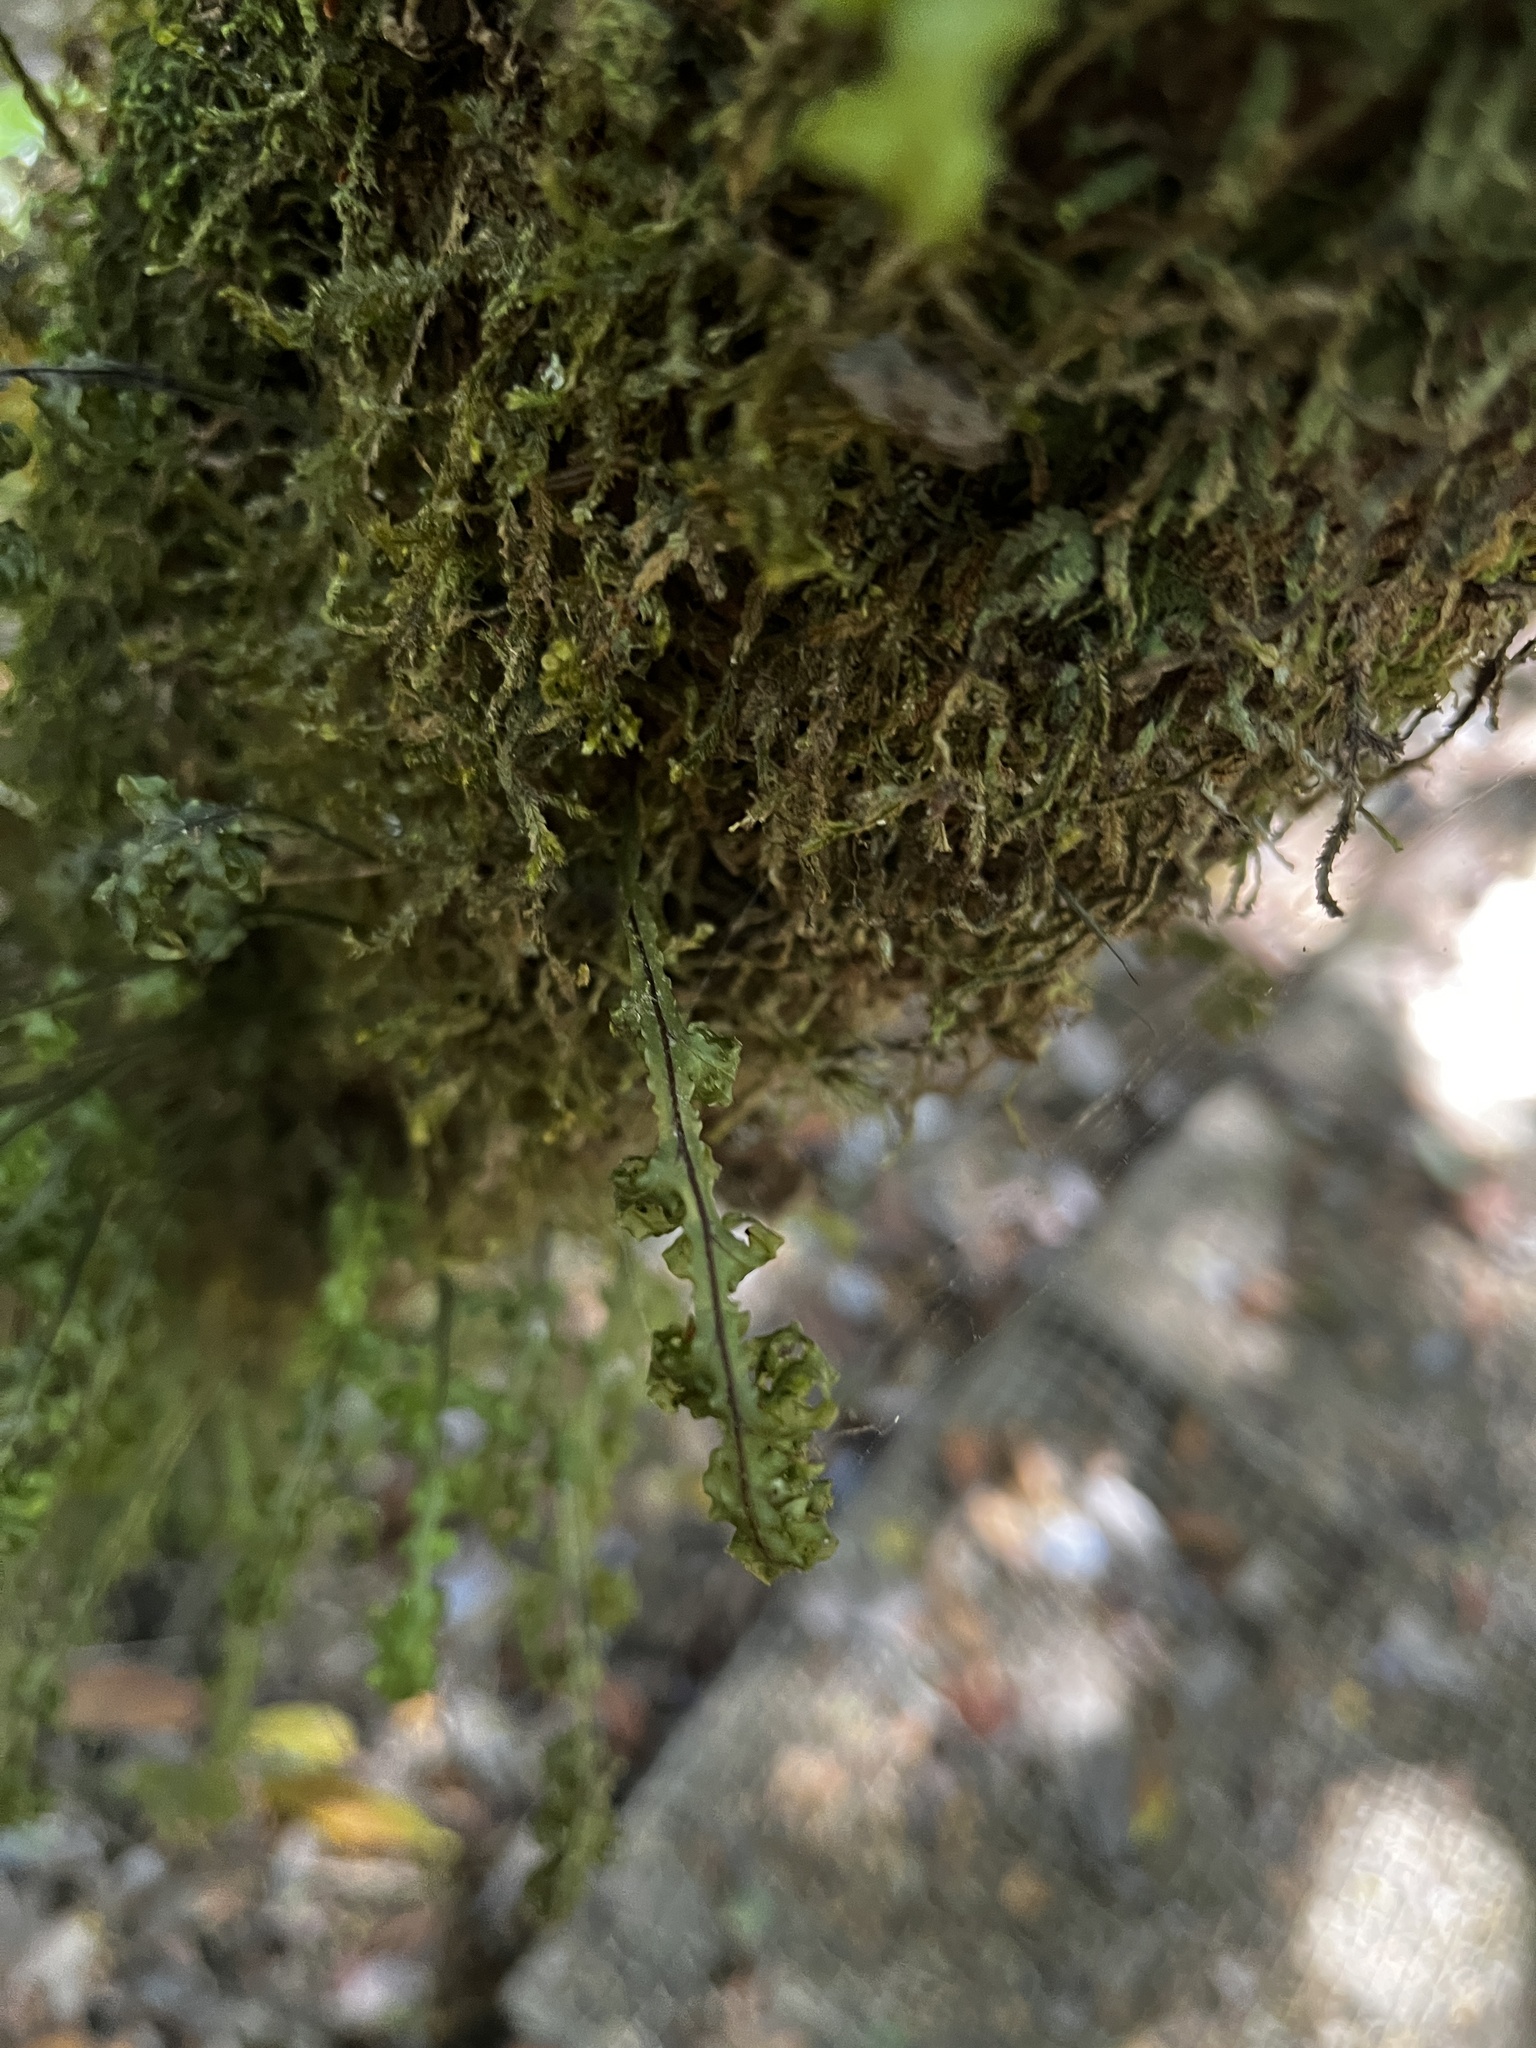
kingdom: Plantae
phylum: Tracheophyta
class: Polypodiopsida
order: Hymenophyllales
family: Hymenophyllaceae
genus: Hymenophyllum
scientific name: Hymenophyllum caudiculatum
